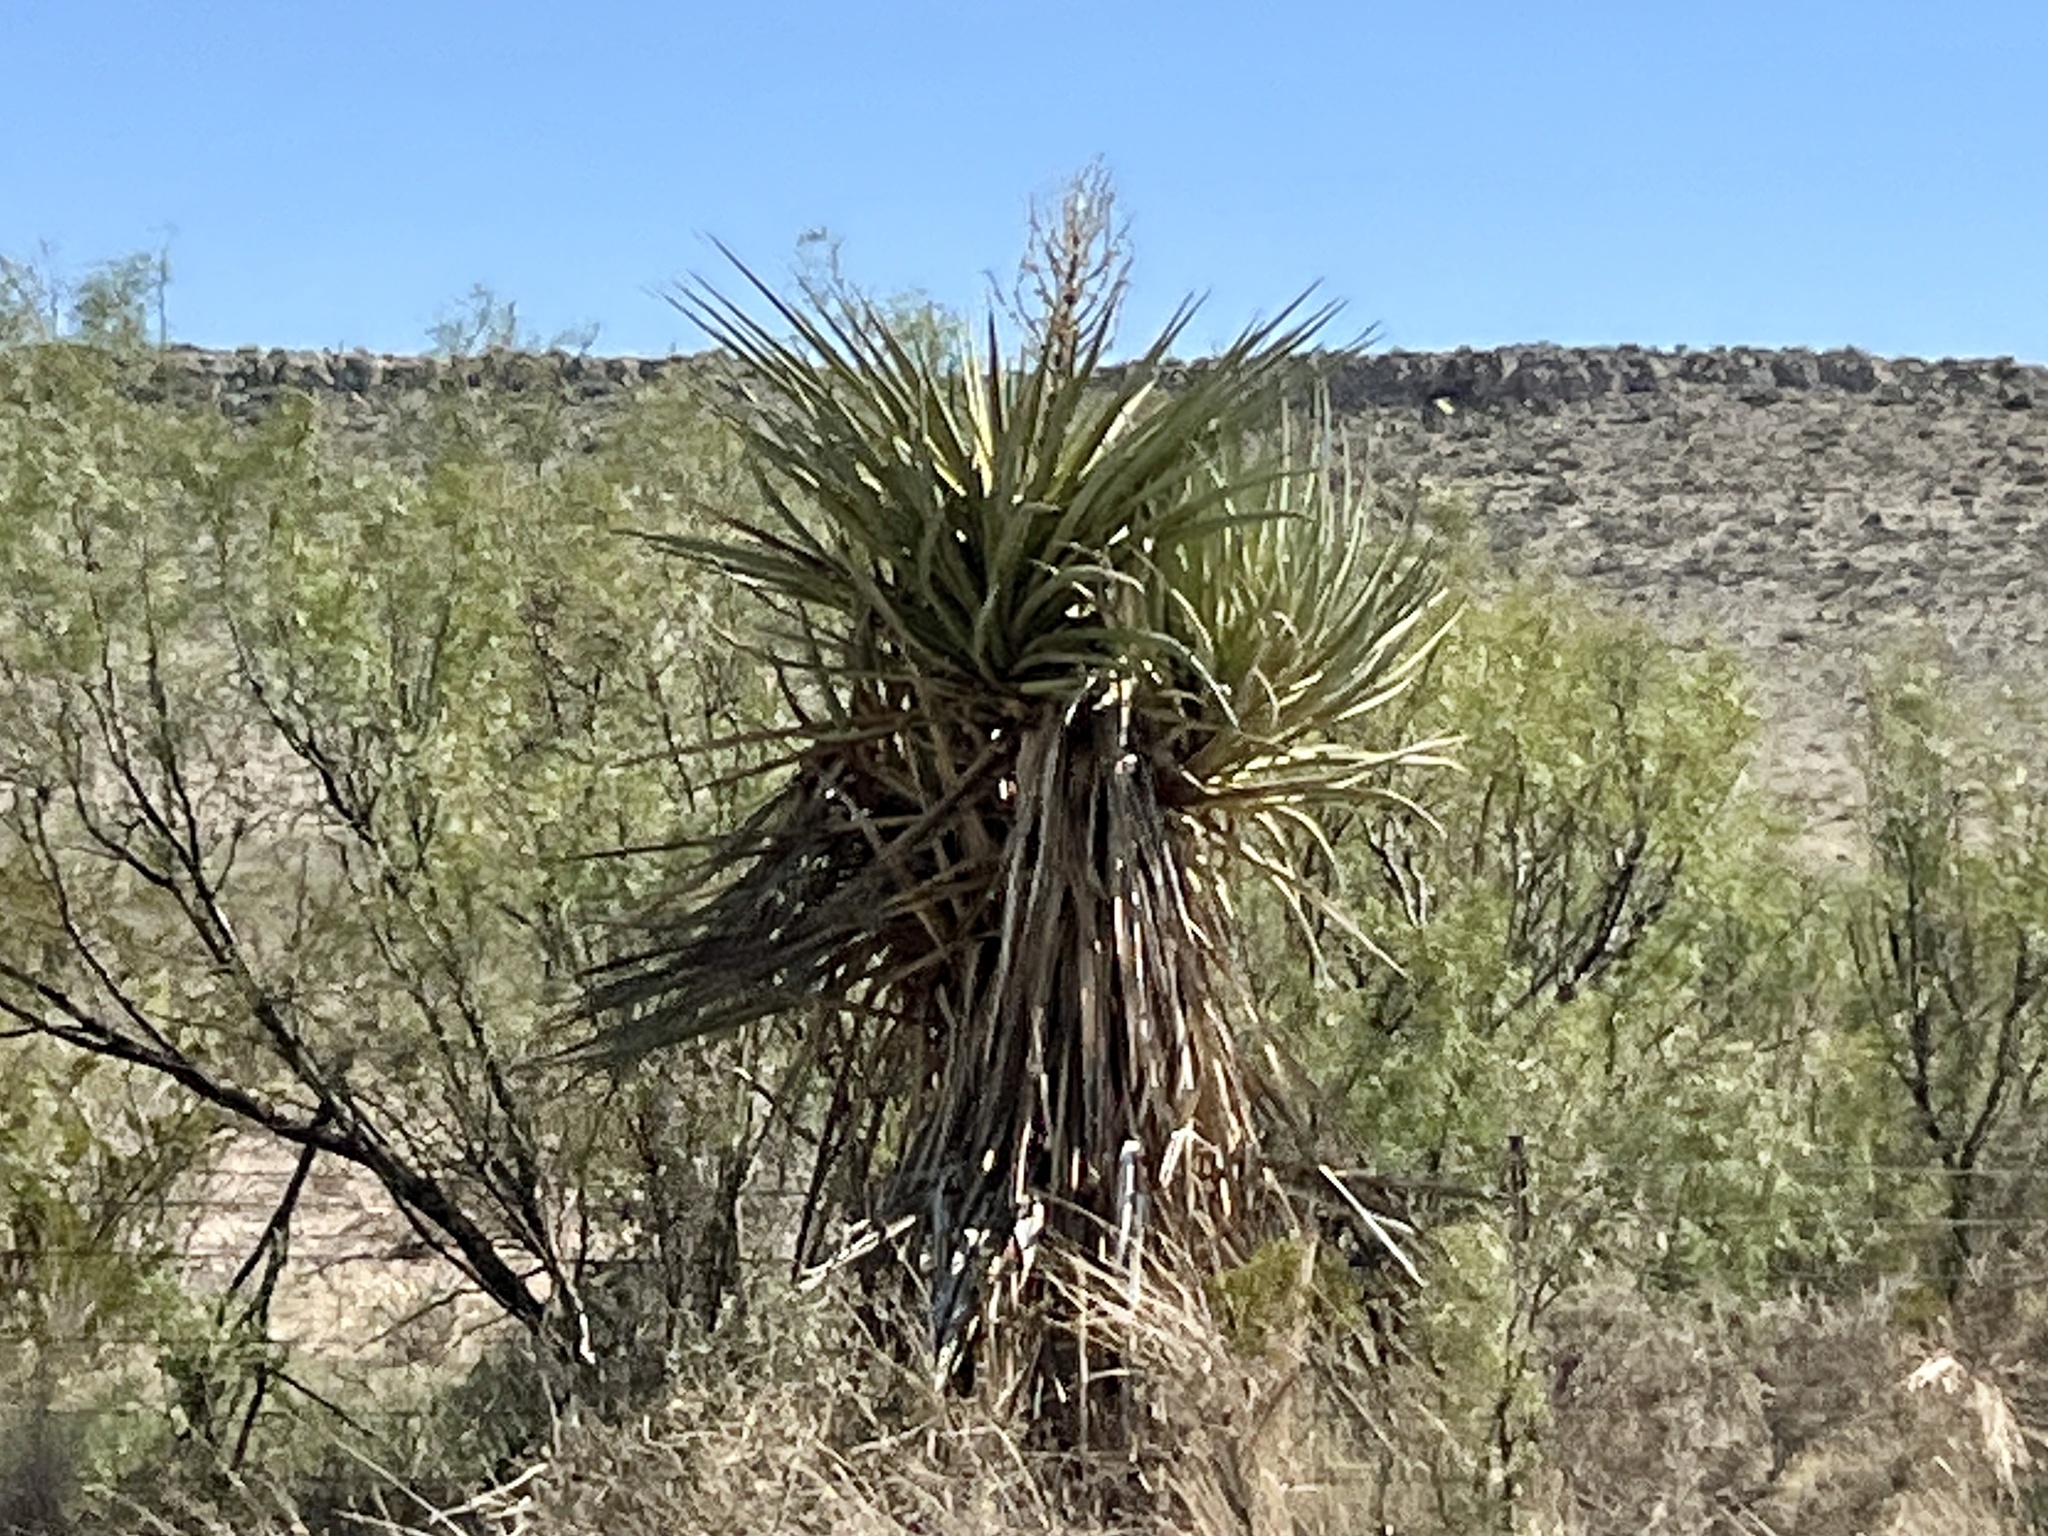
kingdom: Plantae
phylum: Tracheophyta
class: Liliopsida
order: Asparagales
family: Asparagaceae
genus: Yucca
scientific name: Yucca treculiana
